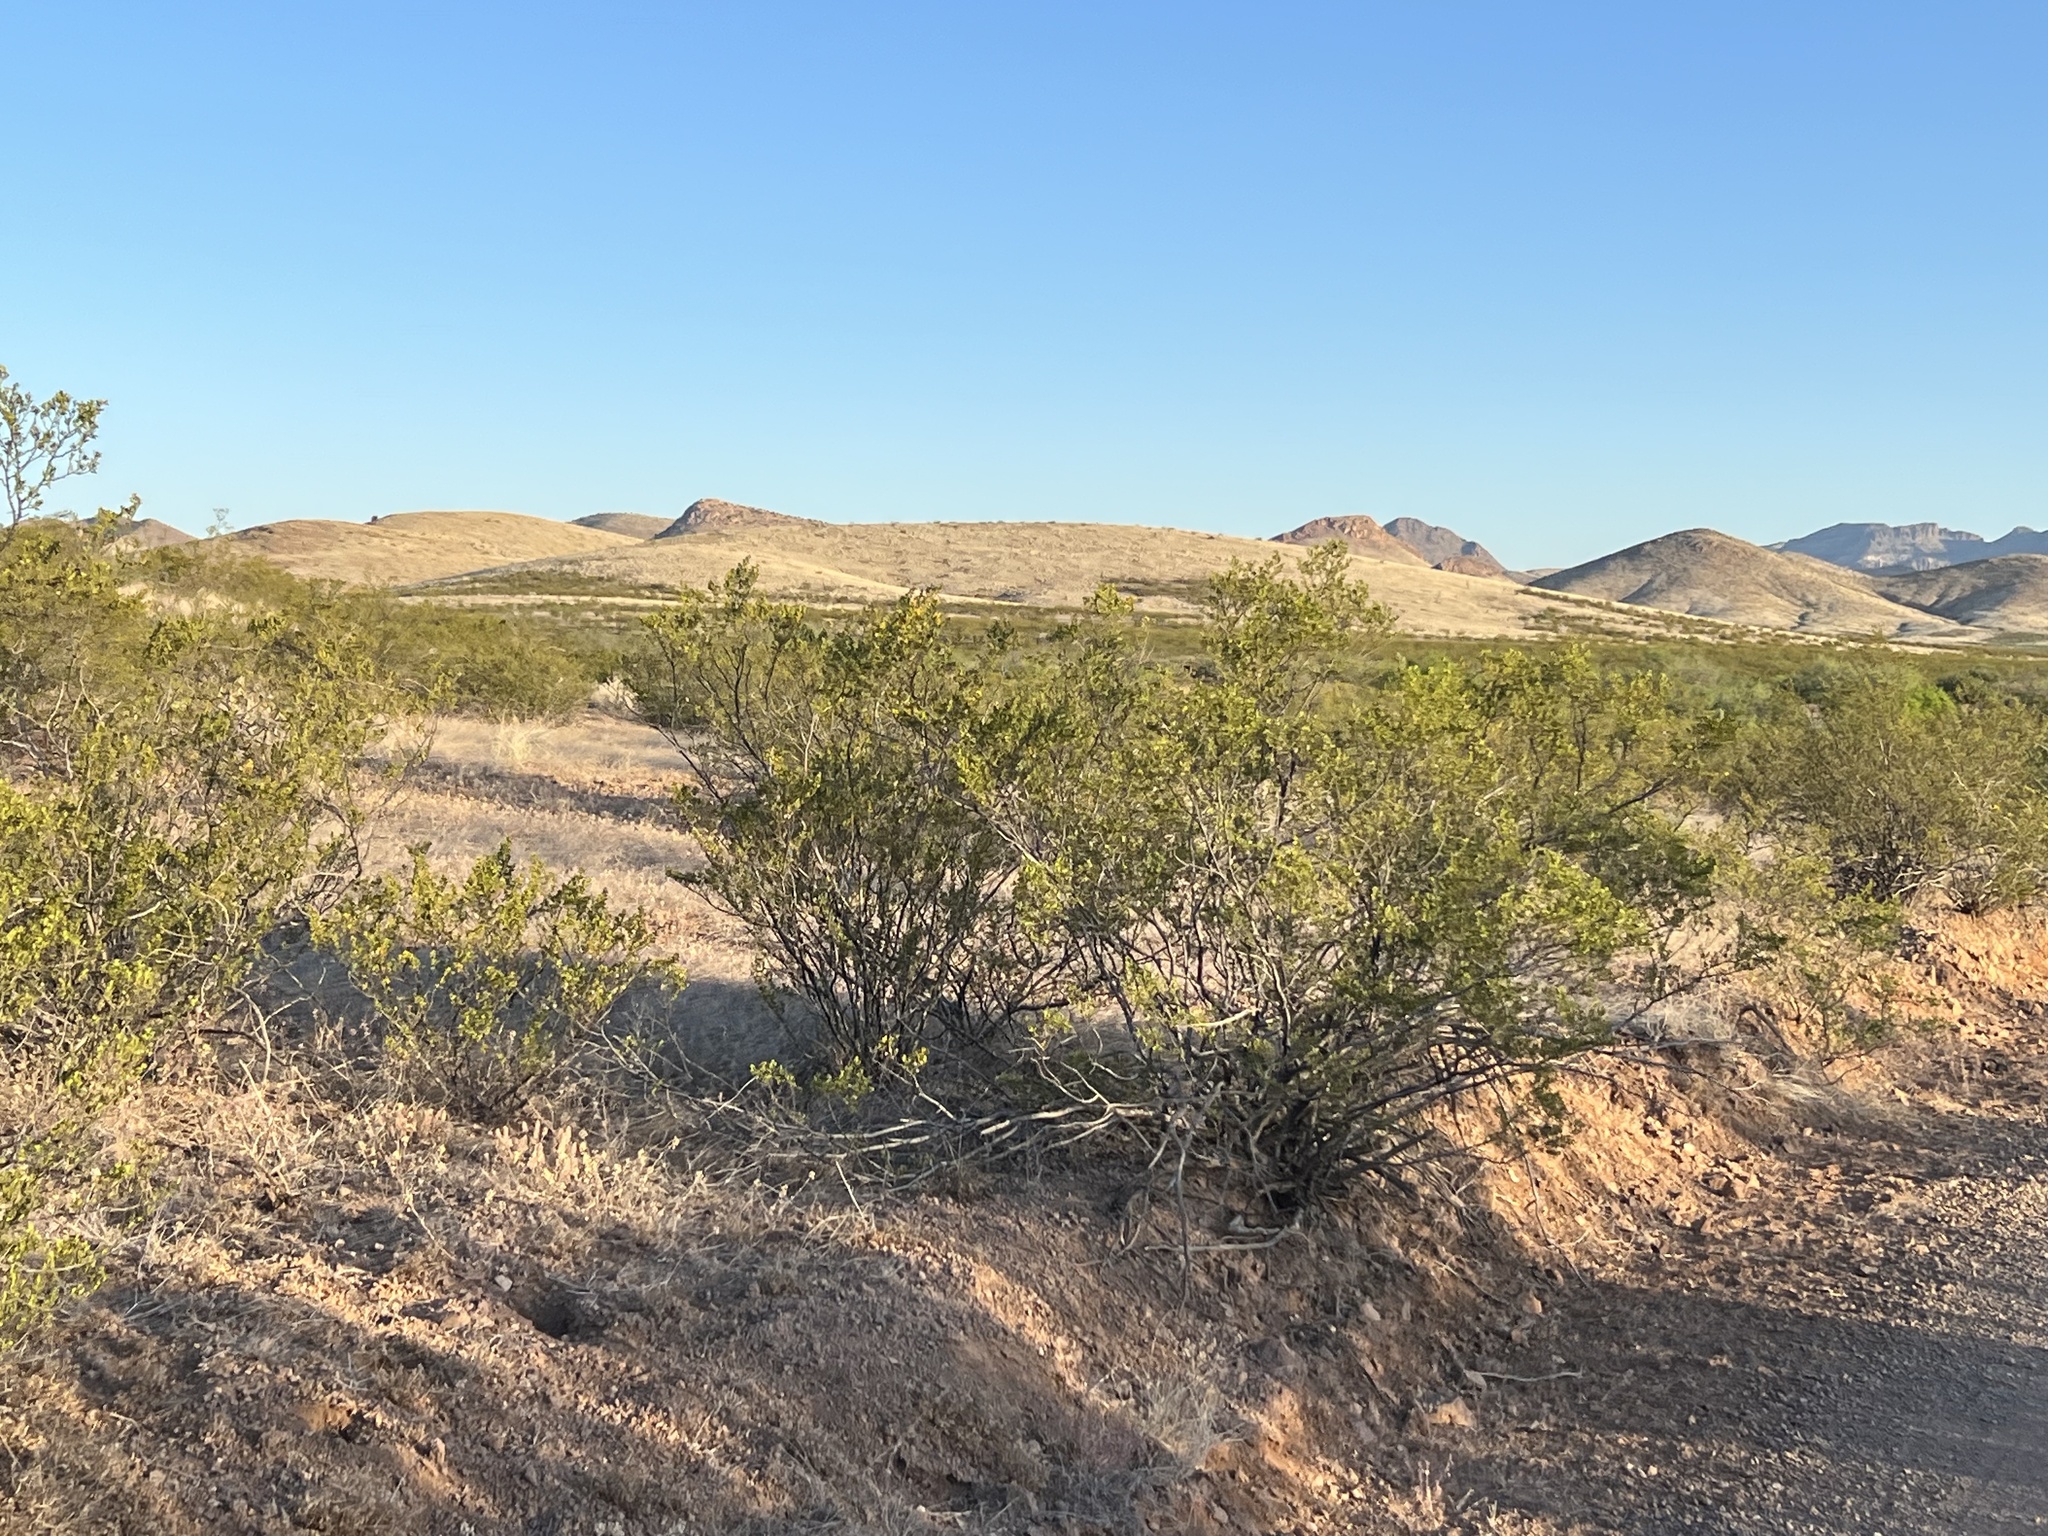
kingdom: Plantae
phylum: Tracheophyta
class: Magnoliopsida
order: Zygophyllales
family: Zygophyllaceae
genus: Larrea
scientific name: Larrea tridentata
